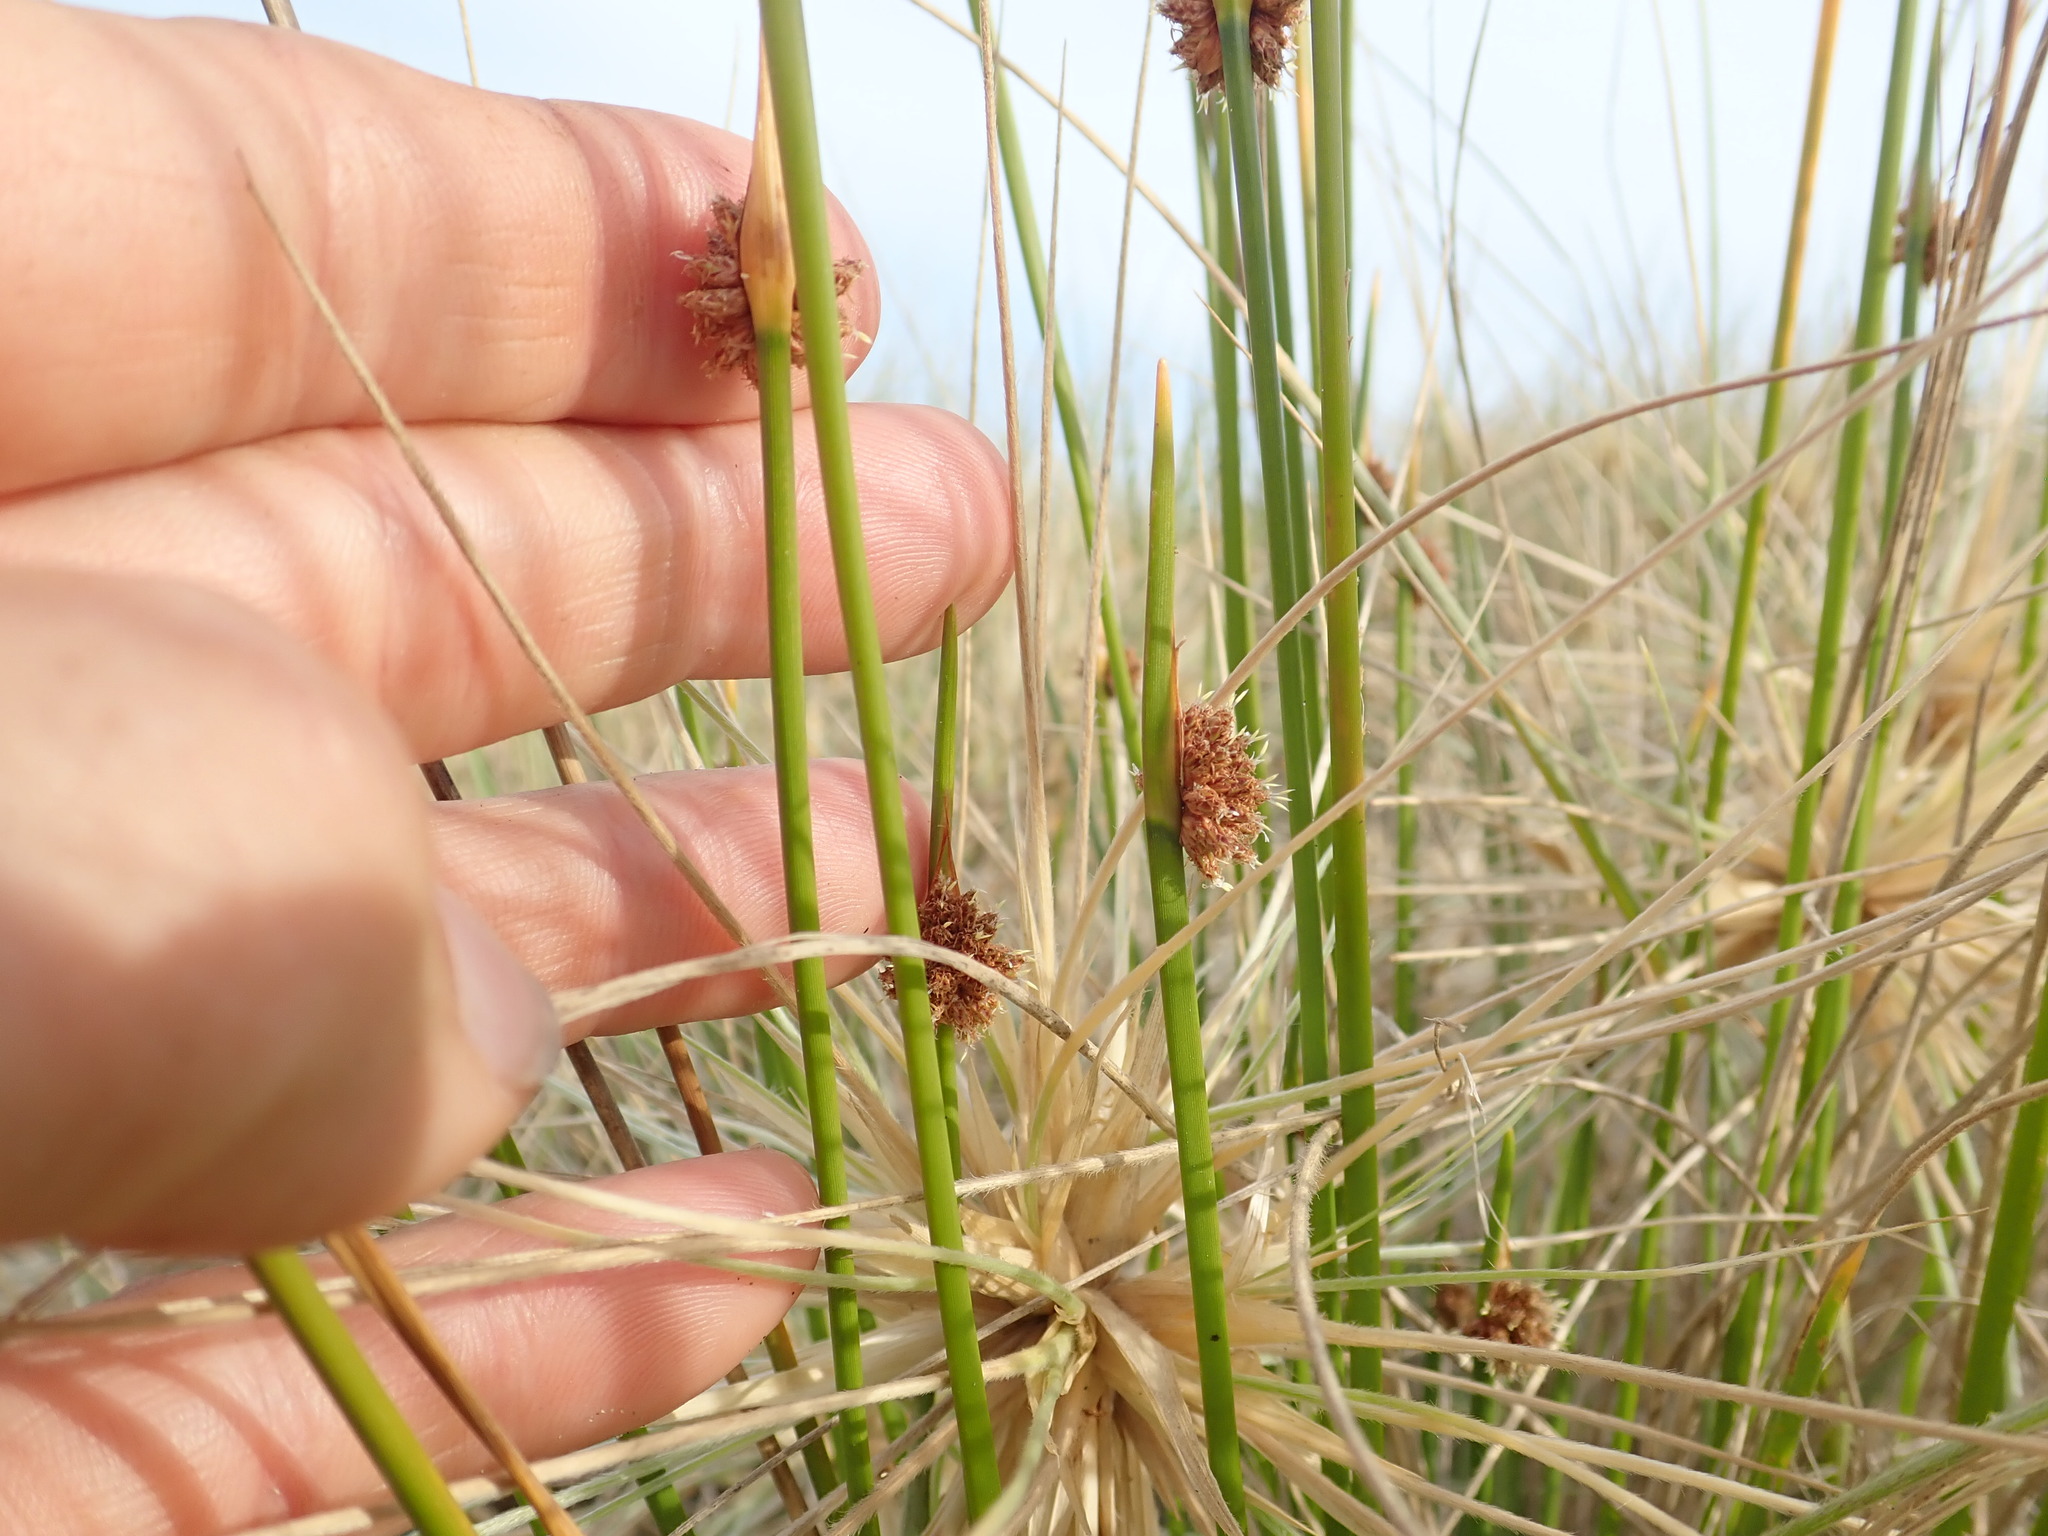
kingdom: Plantae
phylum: Tracheophyta
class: Liliopsida
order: Poales
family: Cyperaceae
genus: Ficinia
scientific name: Ficinia nodosa
